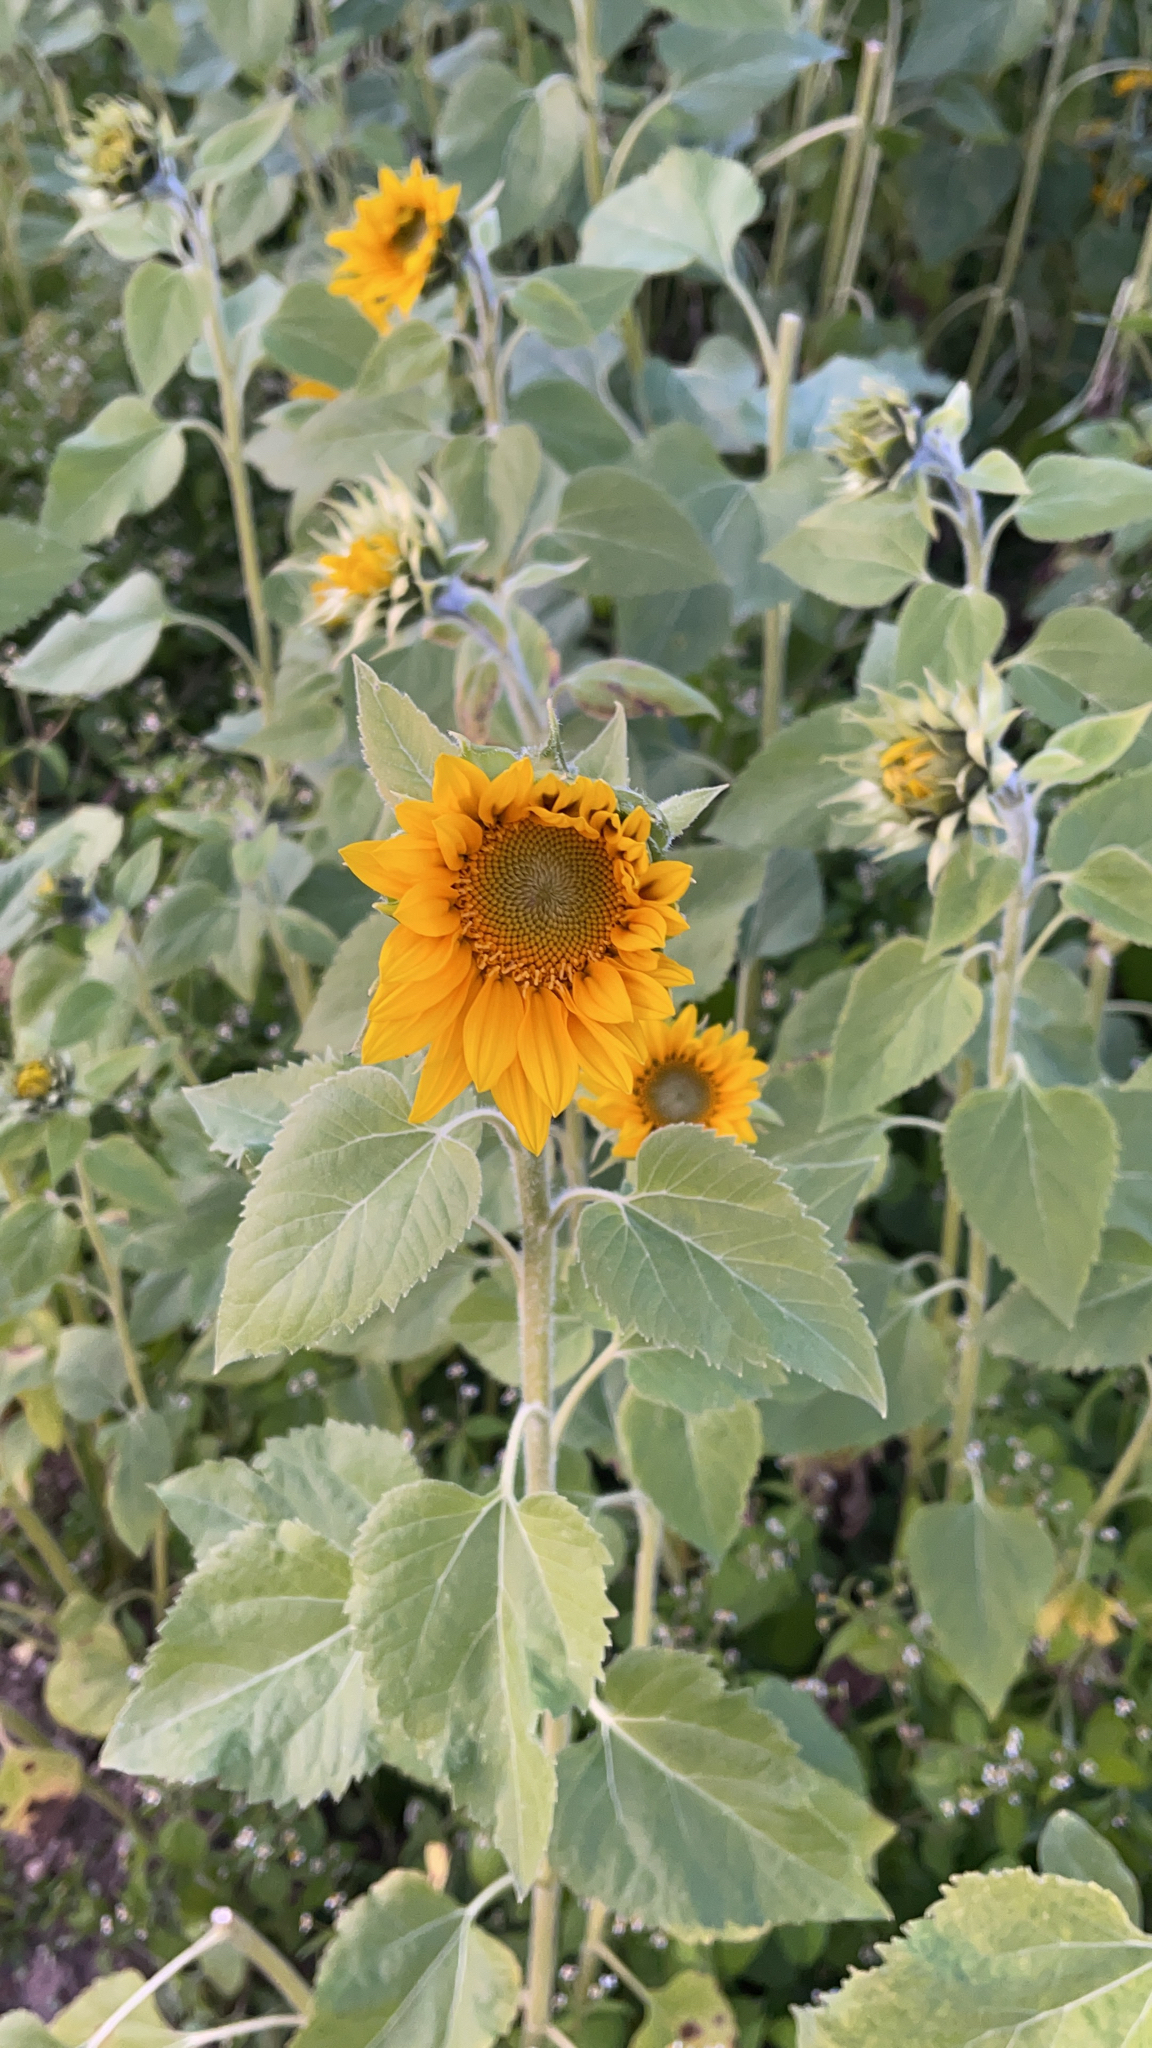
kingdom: Plantae
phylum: Tracheophyta
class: Magnoliopsida
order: Asterales
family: Asteraceae
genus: Helianthus
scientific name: Helianthus annuus
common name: Sunflower
